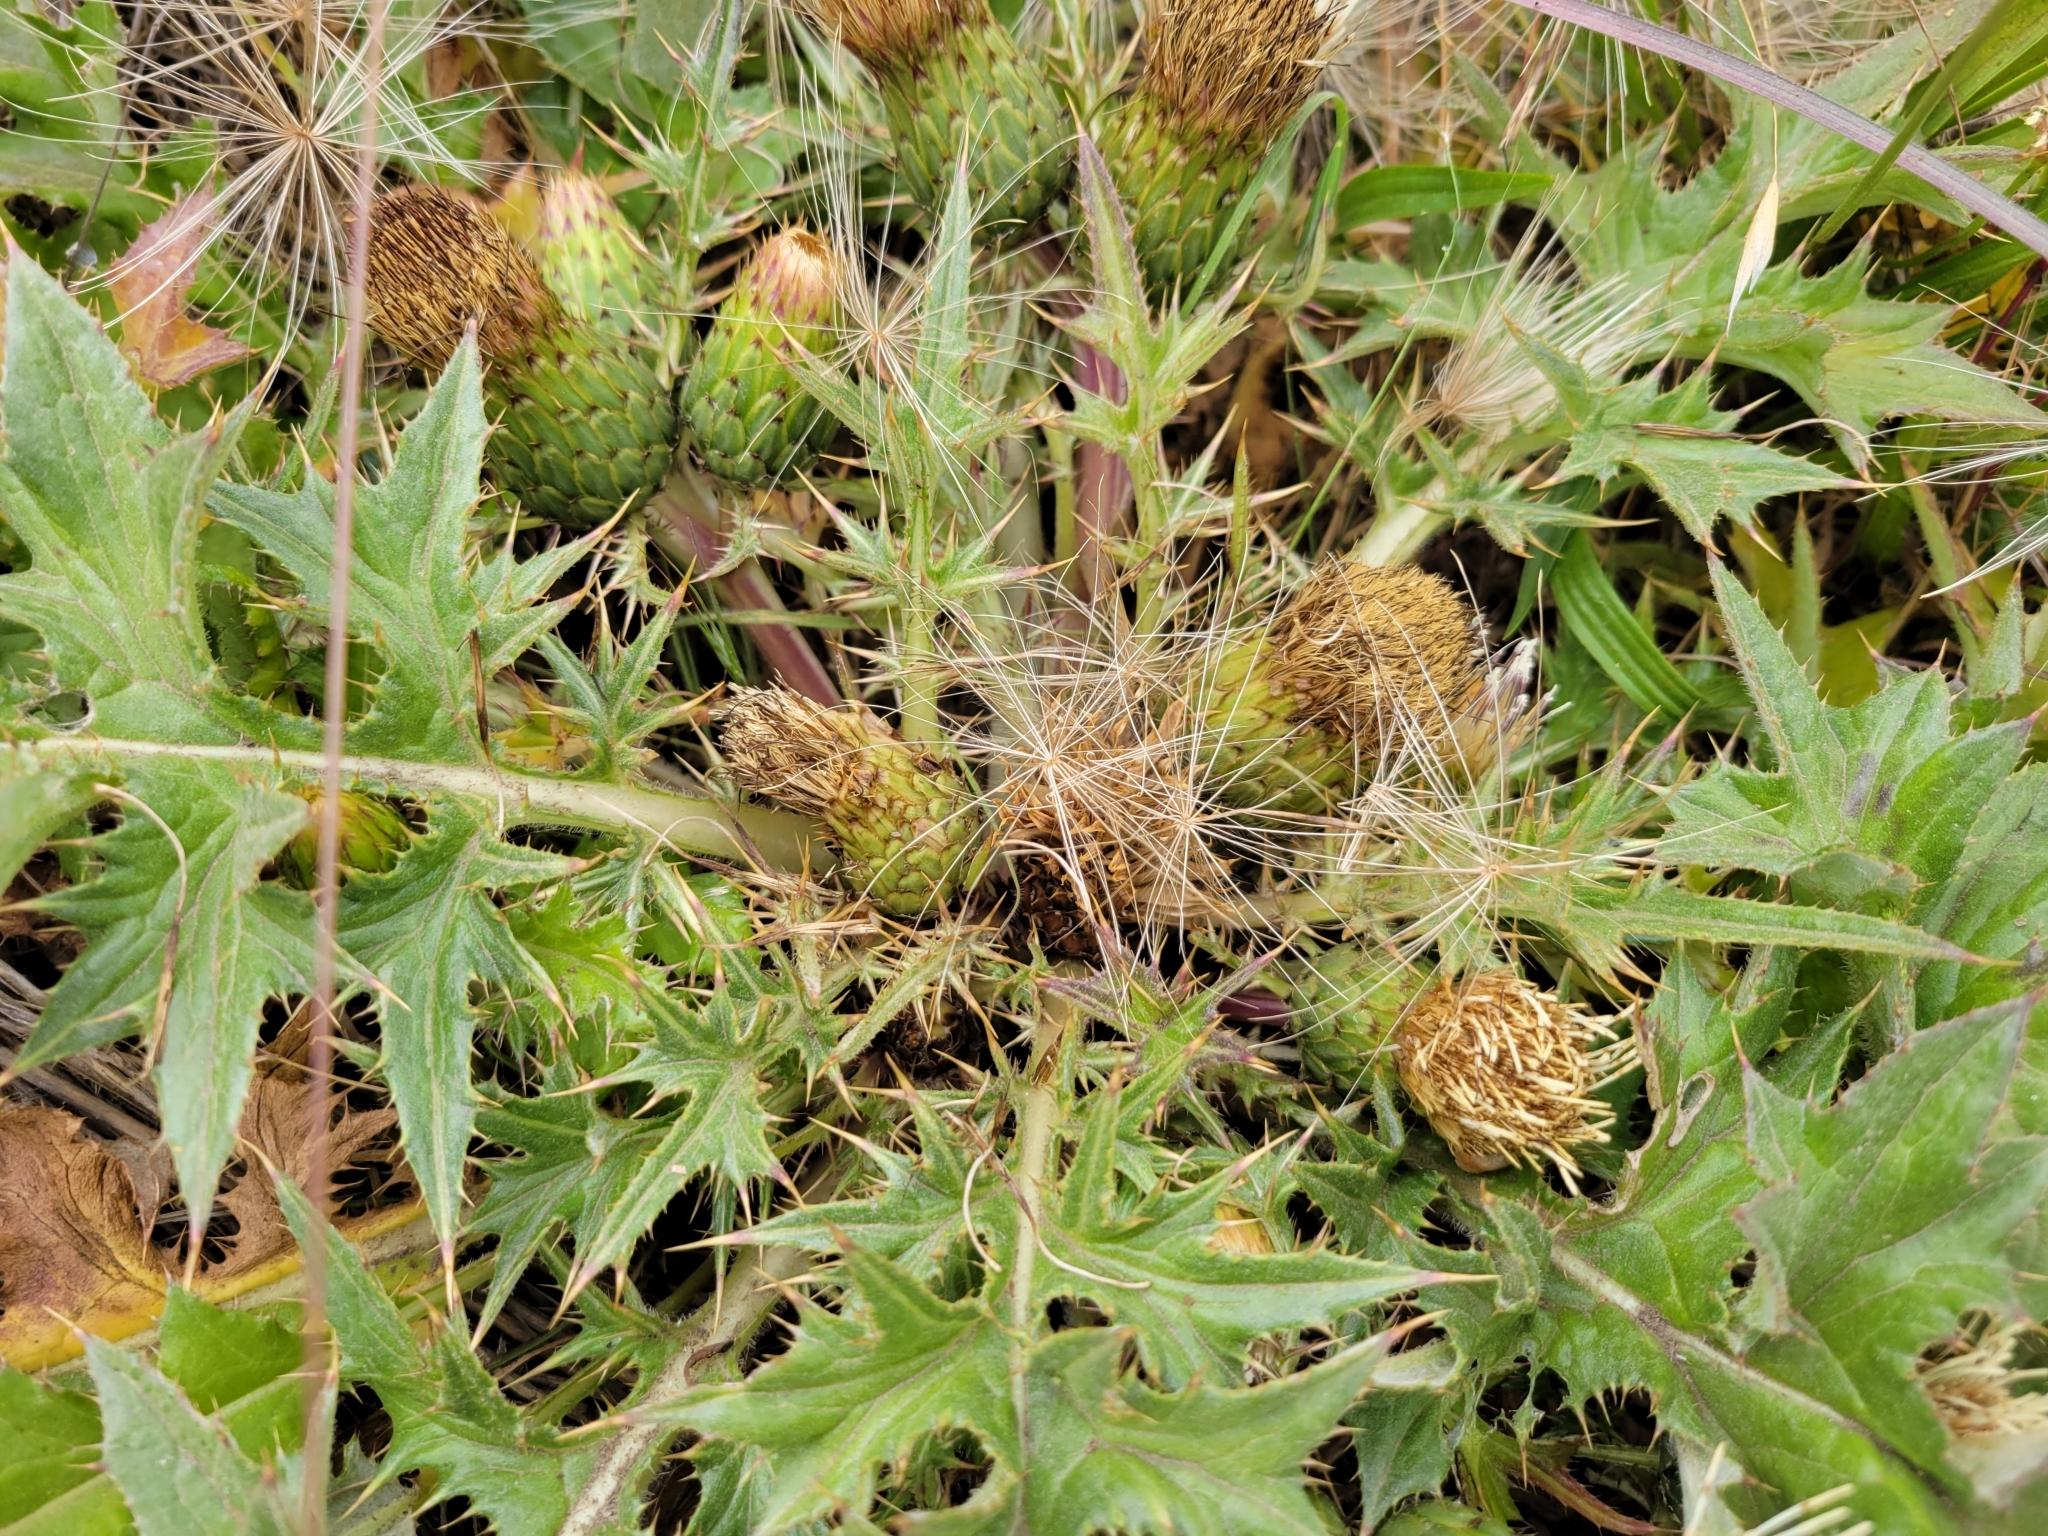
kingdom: Plantae
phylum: Tracheophyta
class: Magnoliopsida
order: Asterales
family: Asteraceae
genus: Cirsium
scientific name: Cirsium quercetorum
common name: Alameda county thistle
